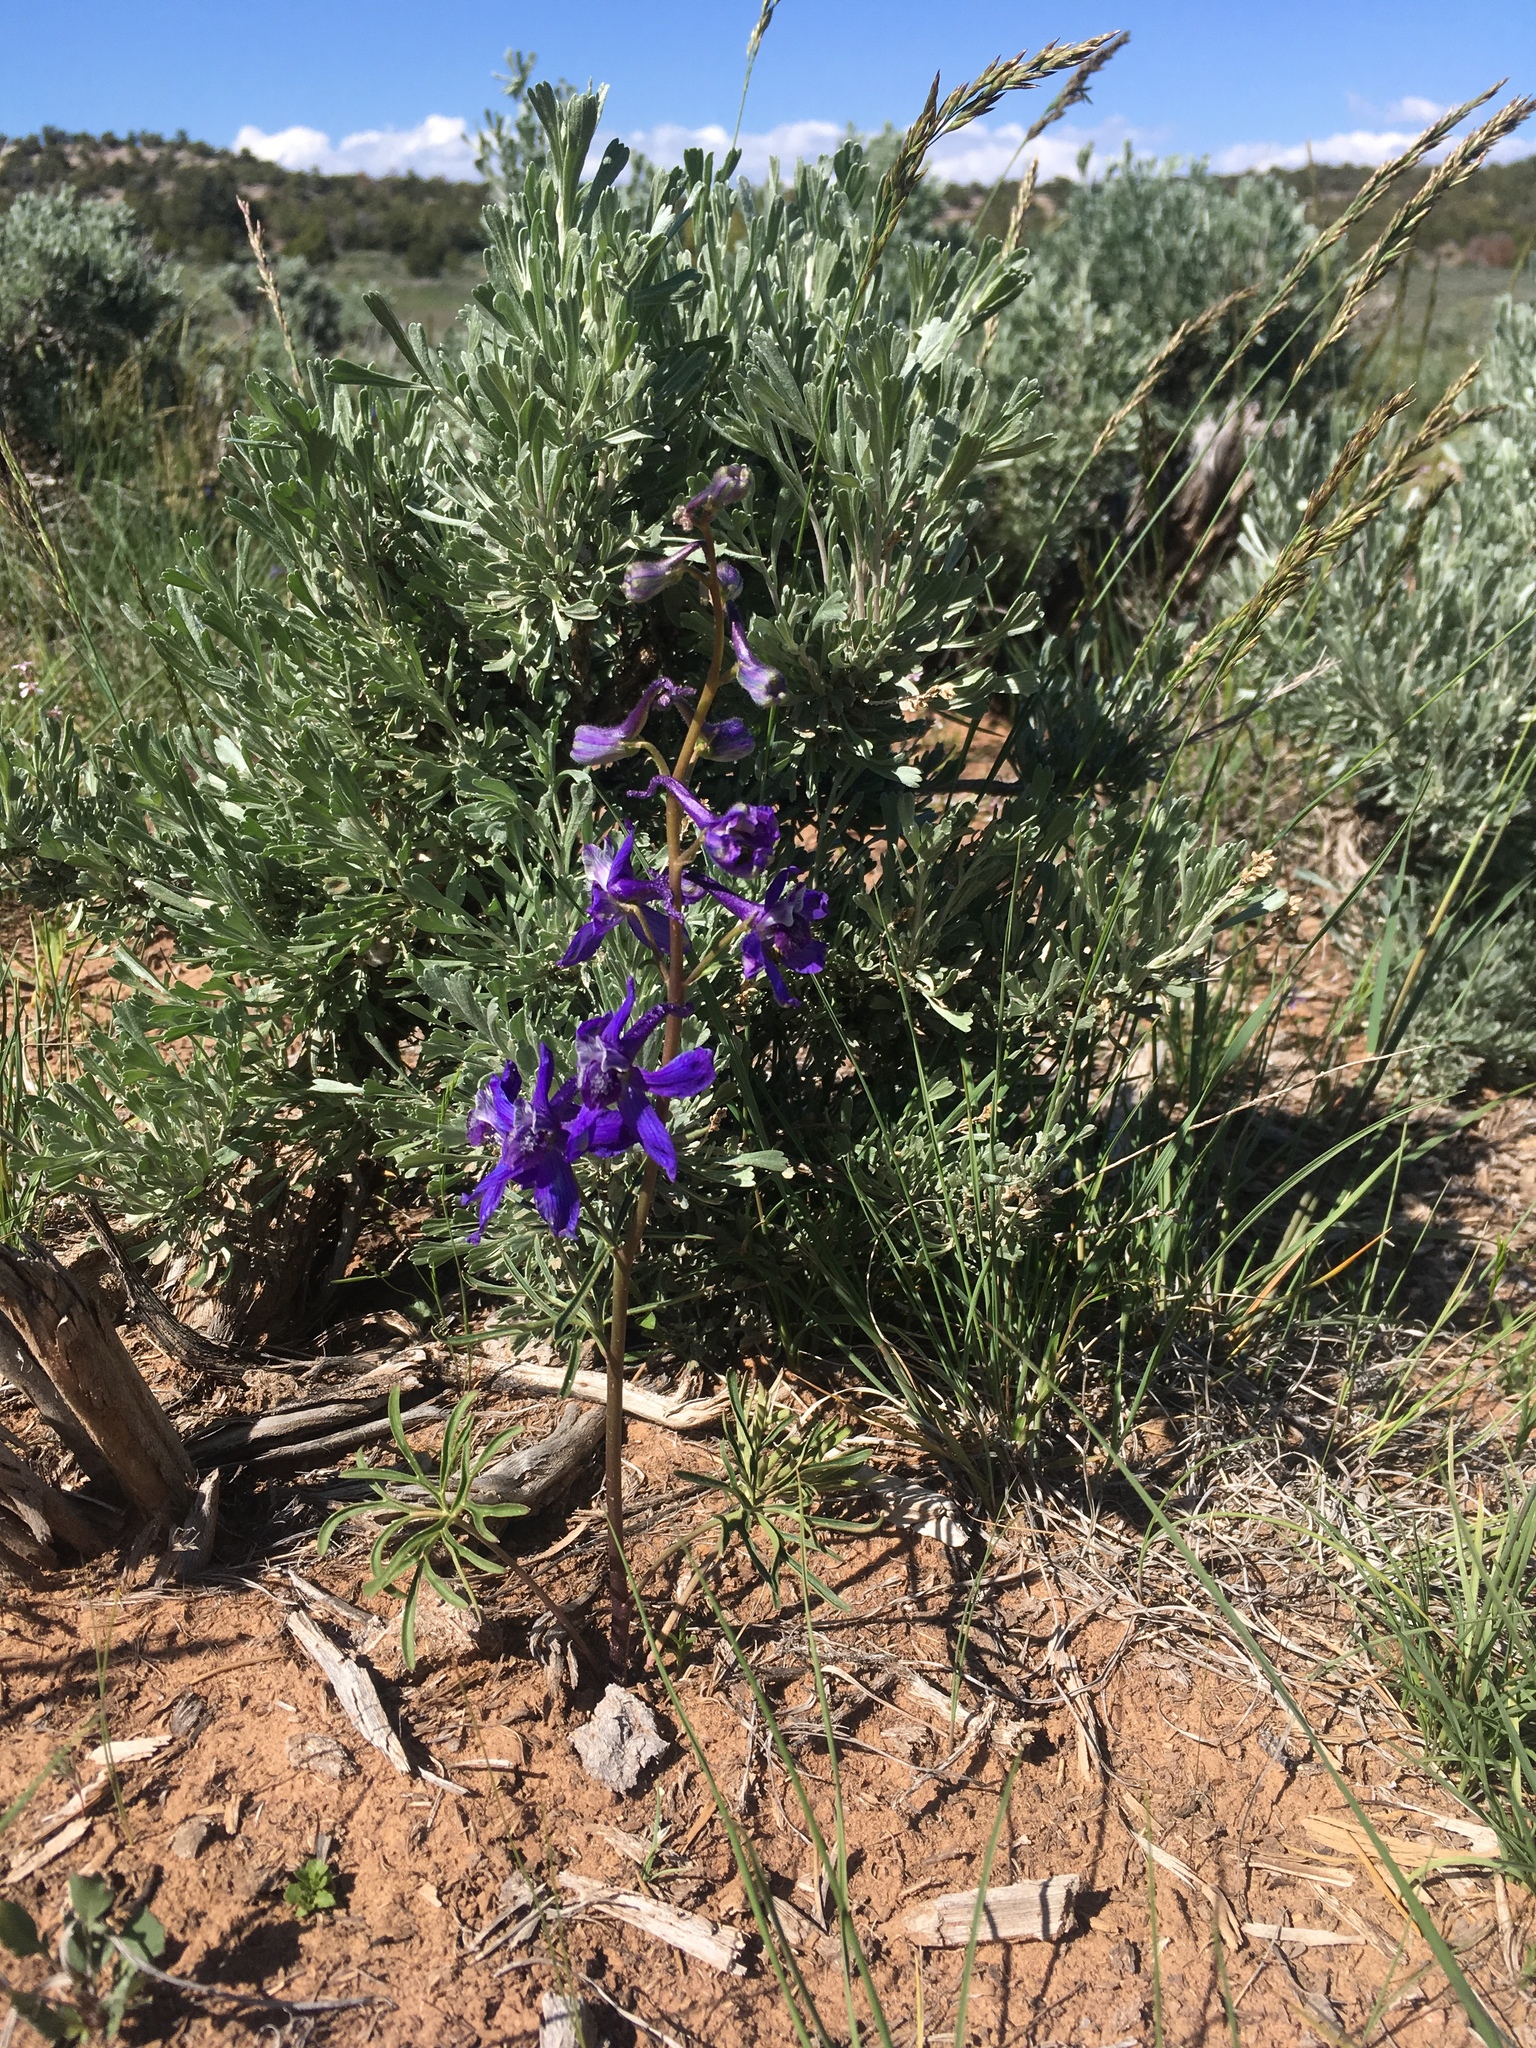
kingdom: Plantae
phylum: Tracheophyta
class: Magnoliopsida
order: Ranunculales
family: Ranunculaceae
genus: Delphinium
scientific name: Delphinium nuttallianum
